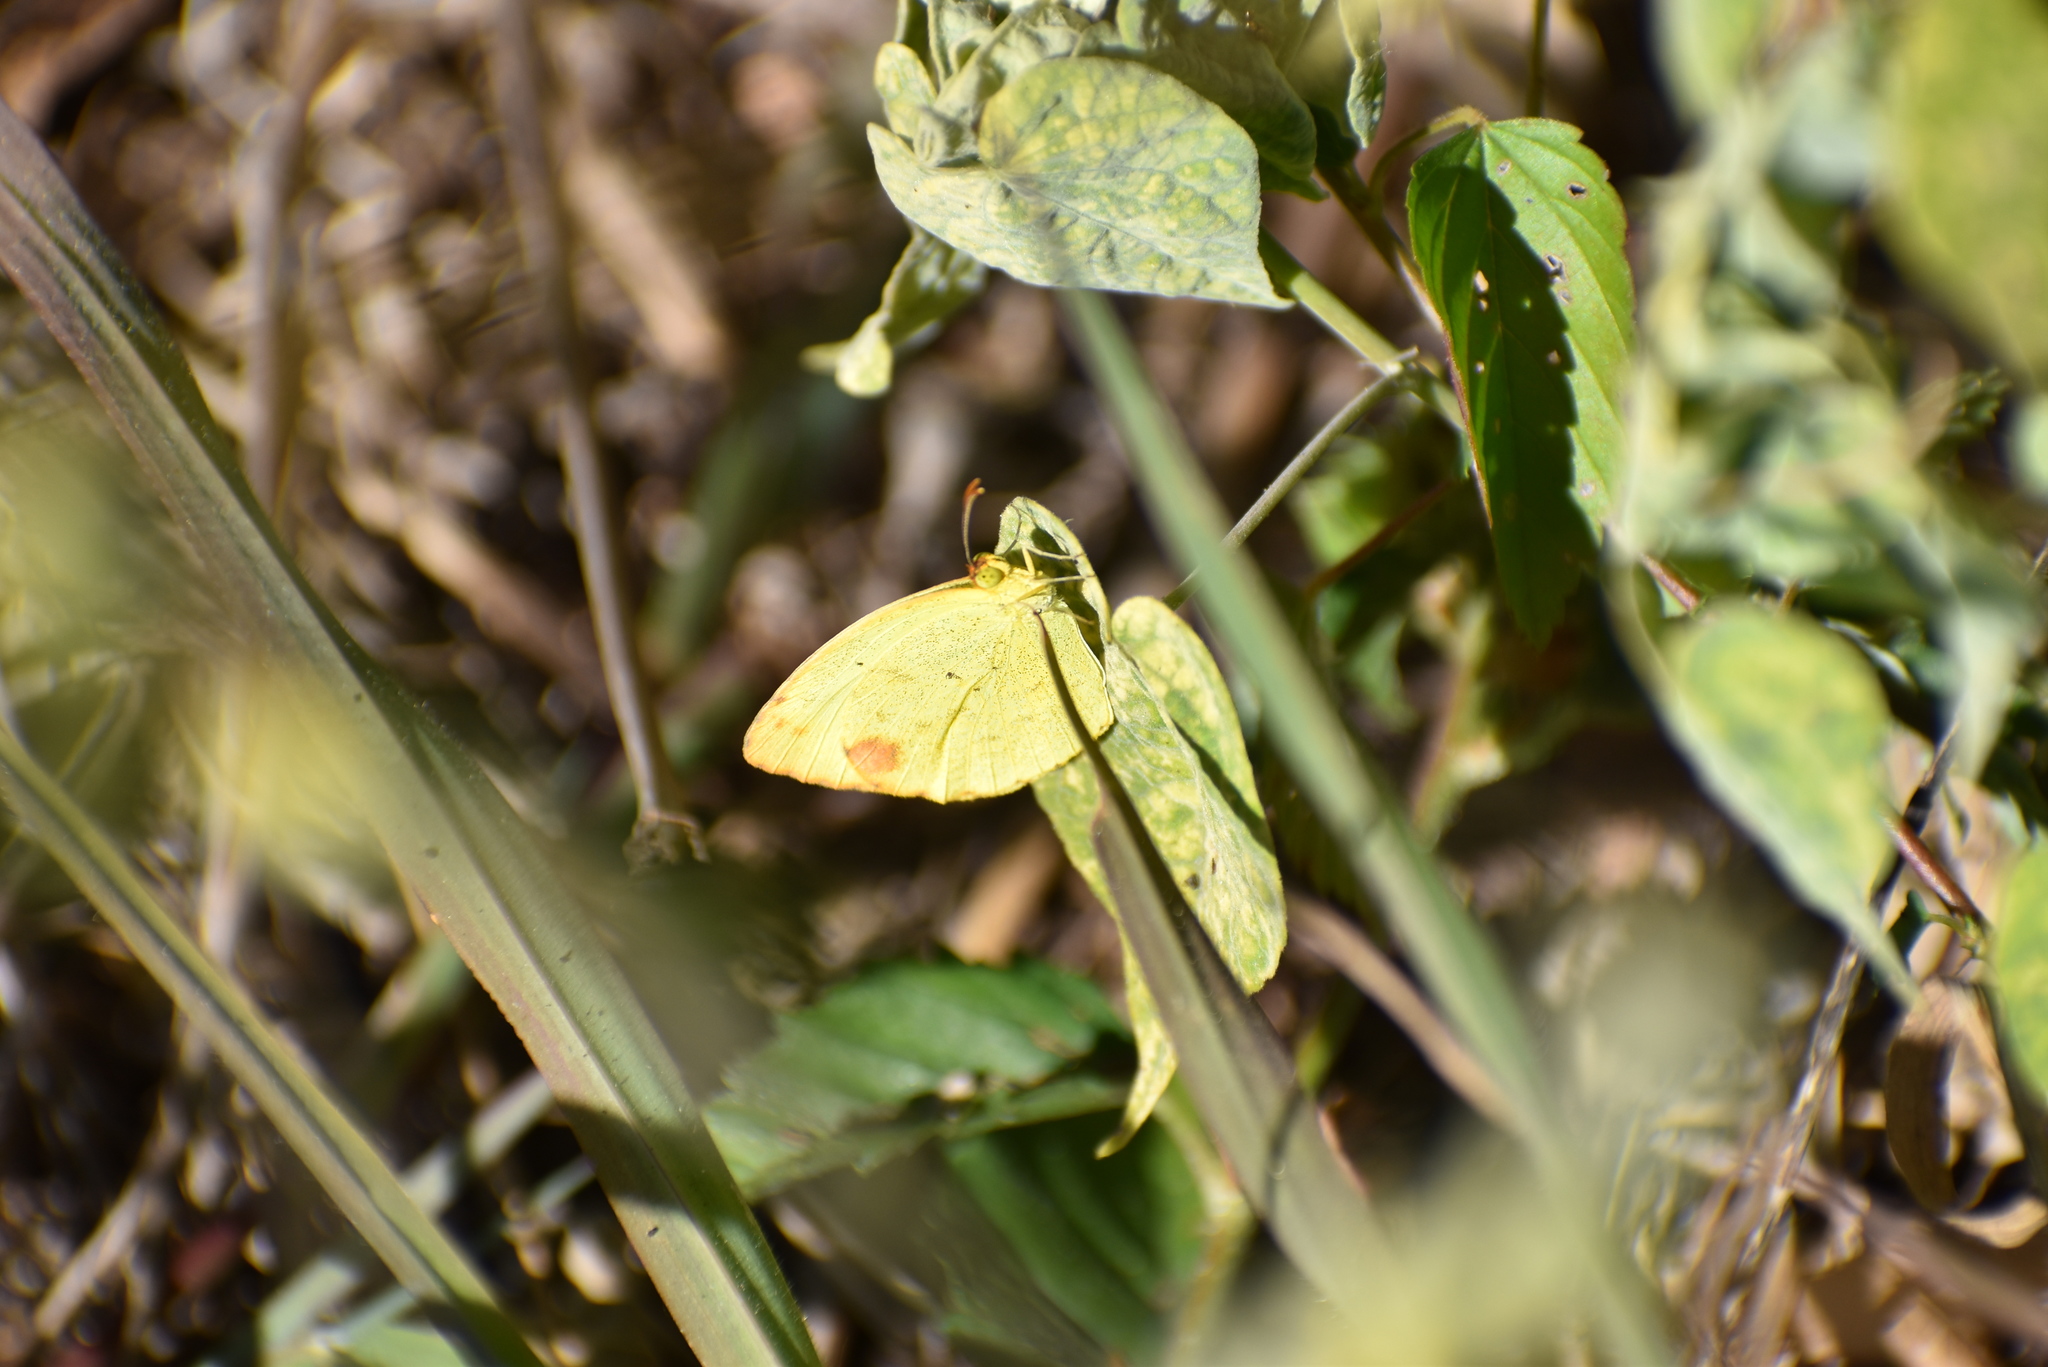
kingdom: Animalia
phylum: Arthropoda
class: Insecta
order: Lepidoptera
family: Pieridae
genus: Pyrisitia
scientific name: Pyrisitia nise
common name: Mimosa yellow
